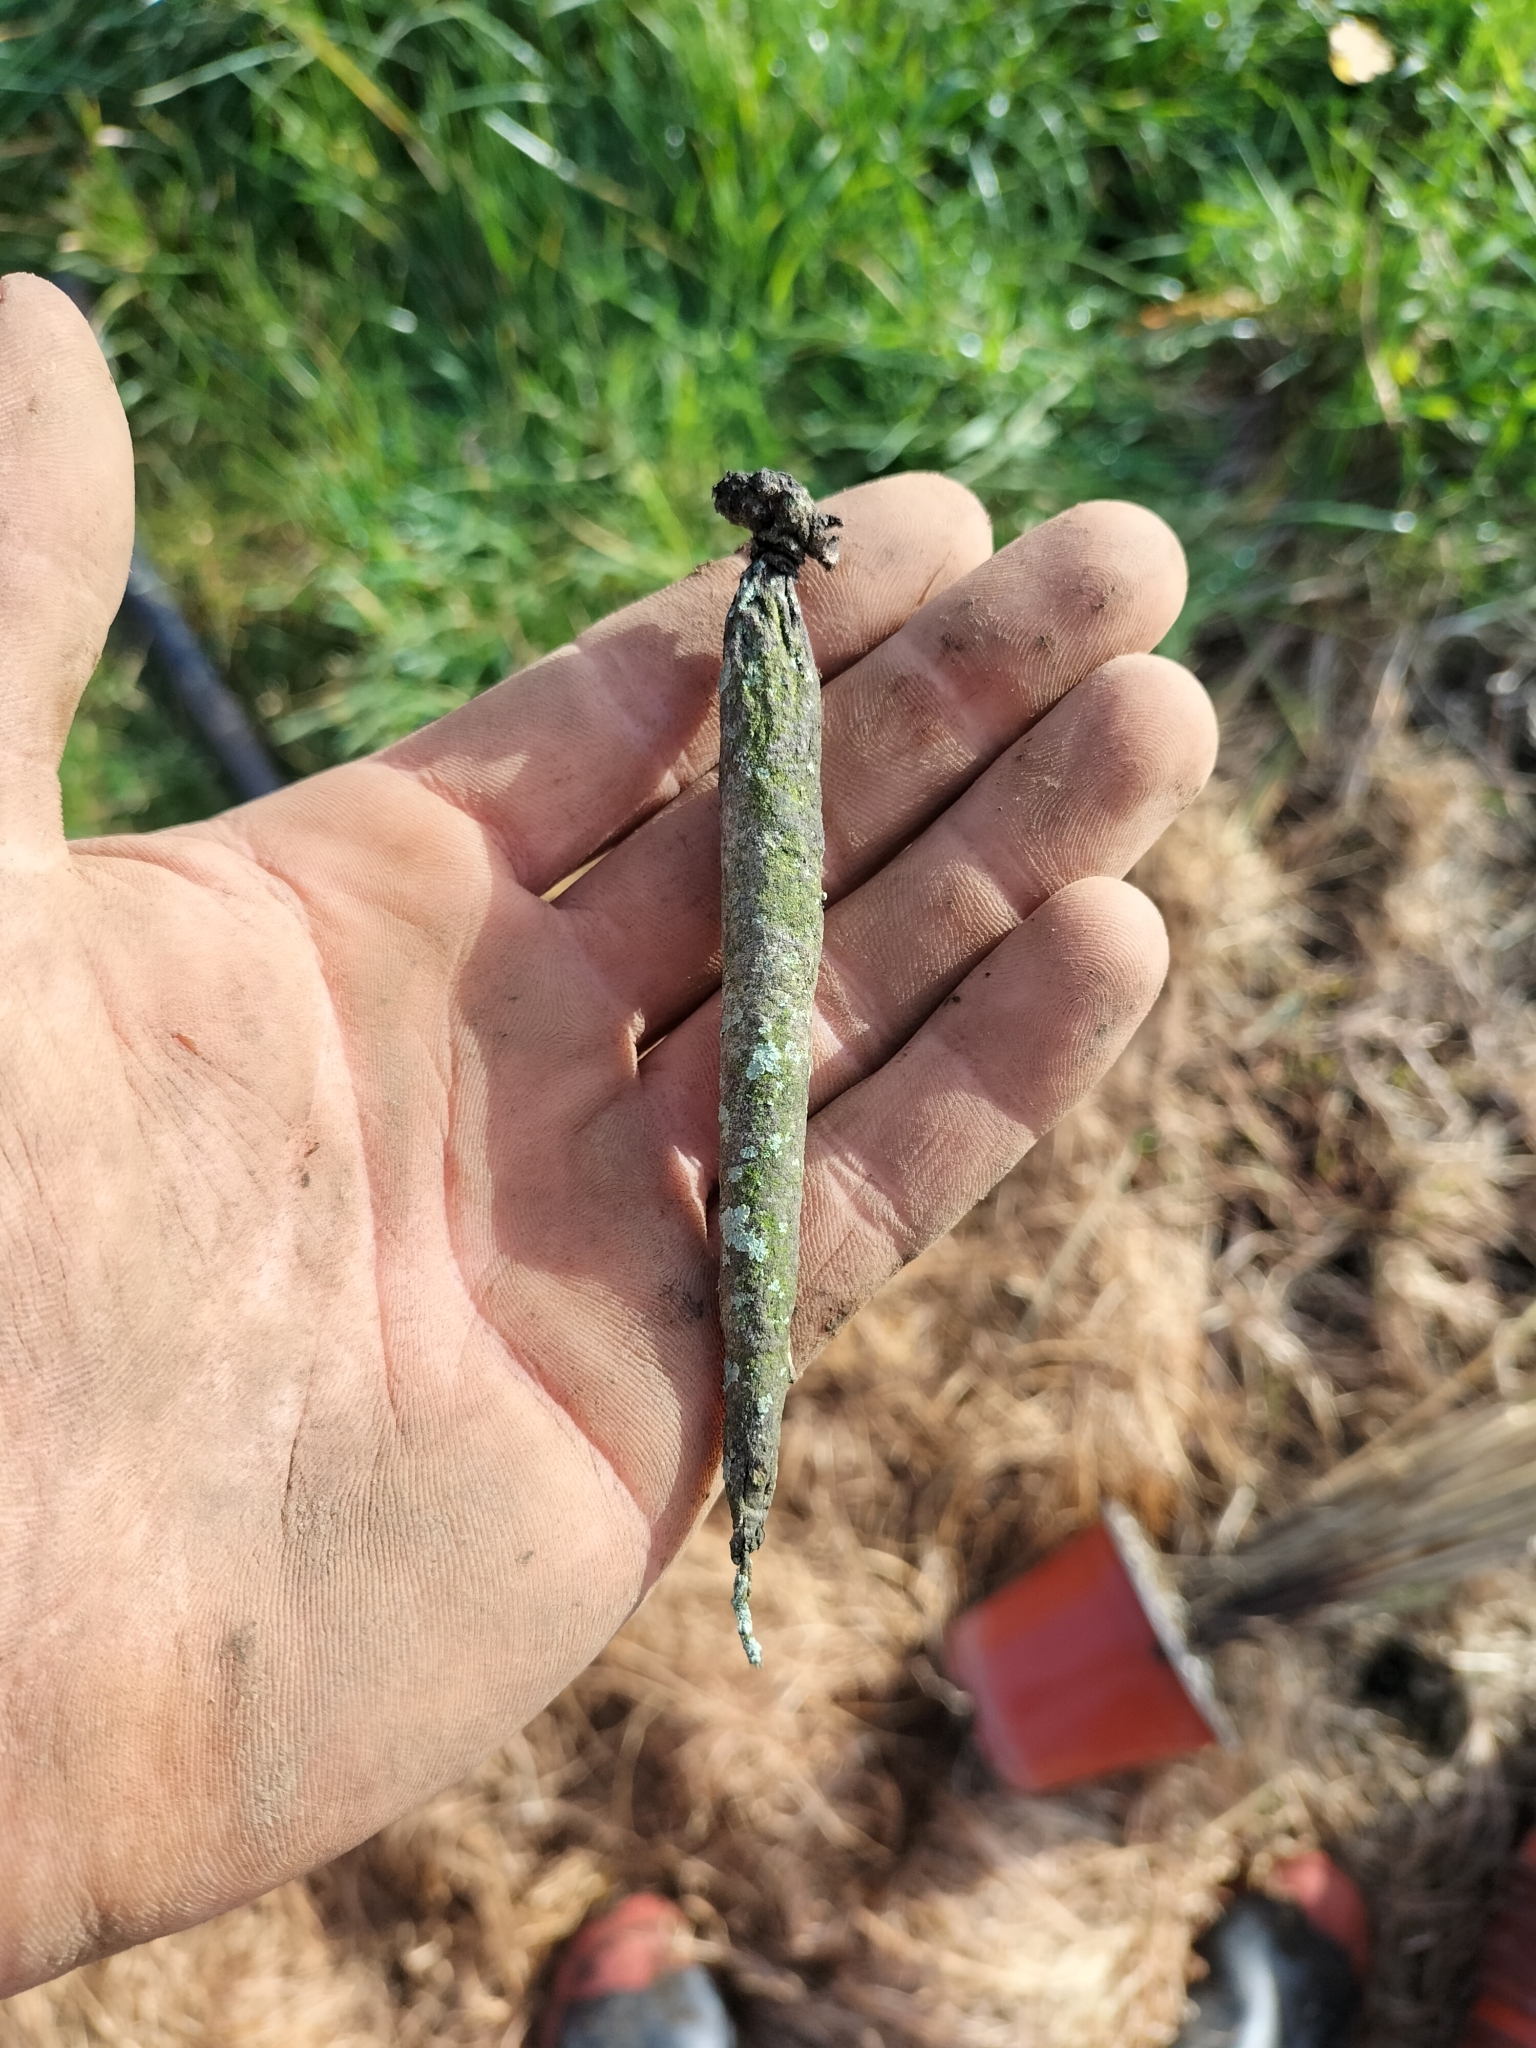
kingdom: Animalia
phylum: Arthropoda
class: Insecta
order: Lepidoptera
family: Psychidae
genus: Liothula
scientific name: Liothula omnivora
